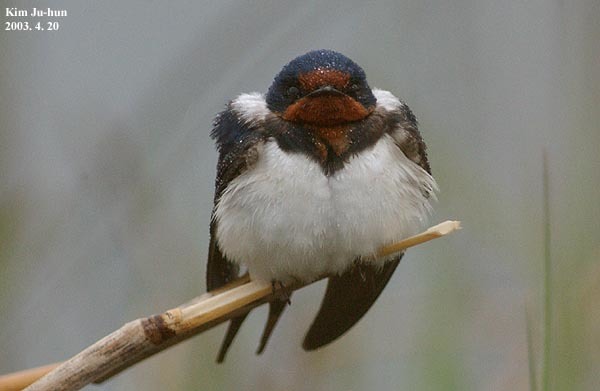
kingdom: Animalia
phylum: Chordata
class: Aves
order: Passeriformes
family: Hirundinidae
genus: Hirundo
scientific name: Hirundo rustica
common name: Barn swallow
